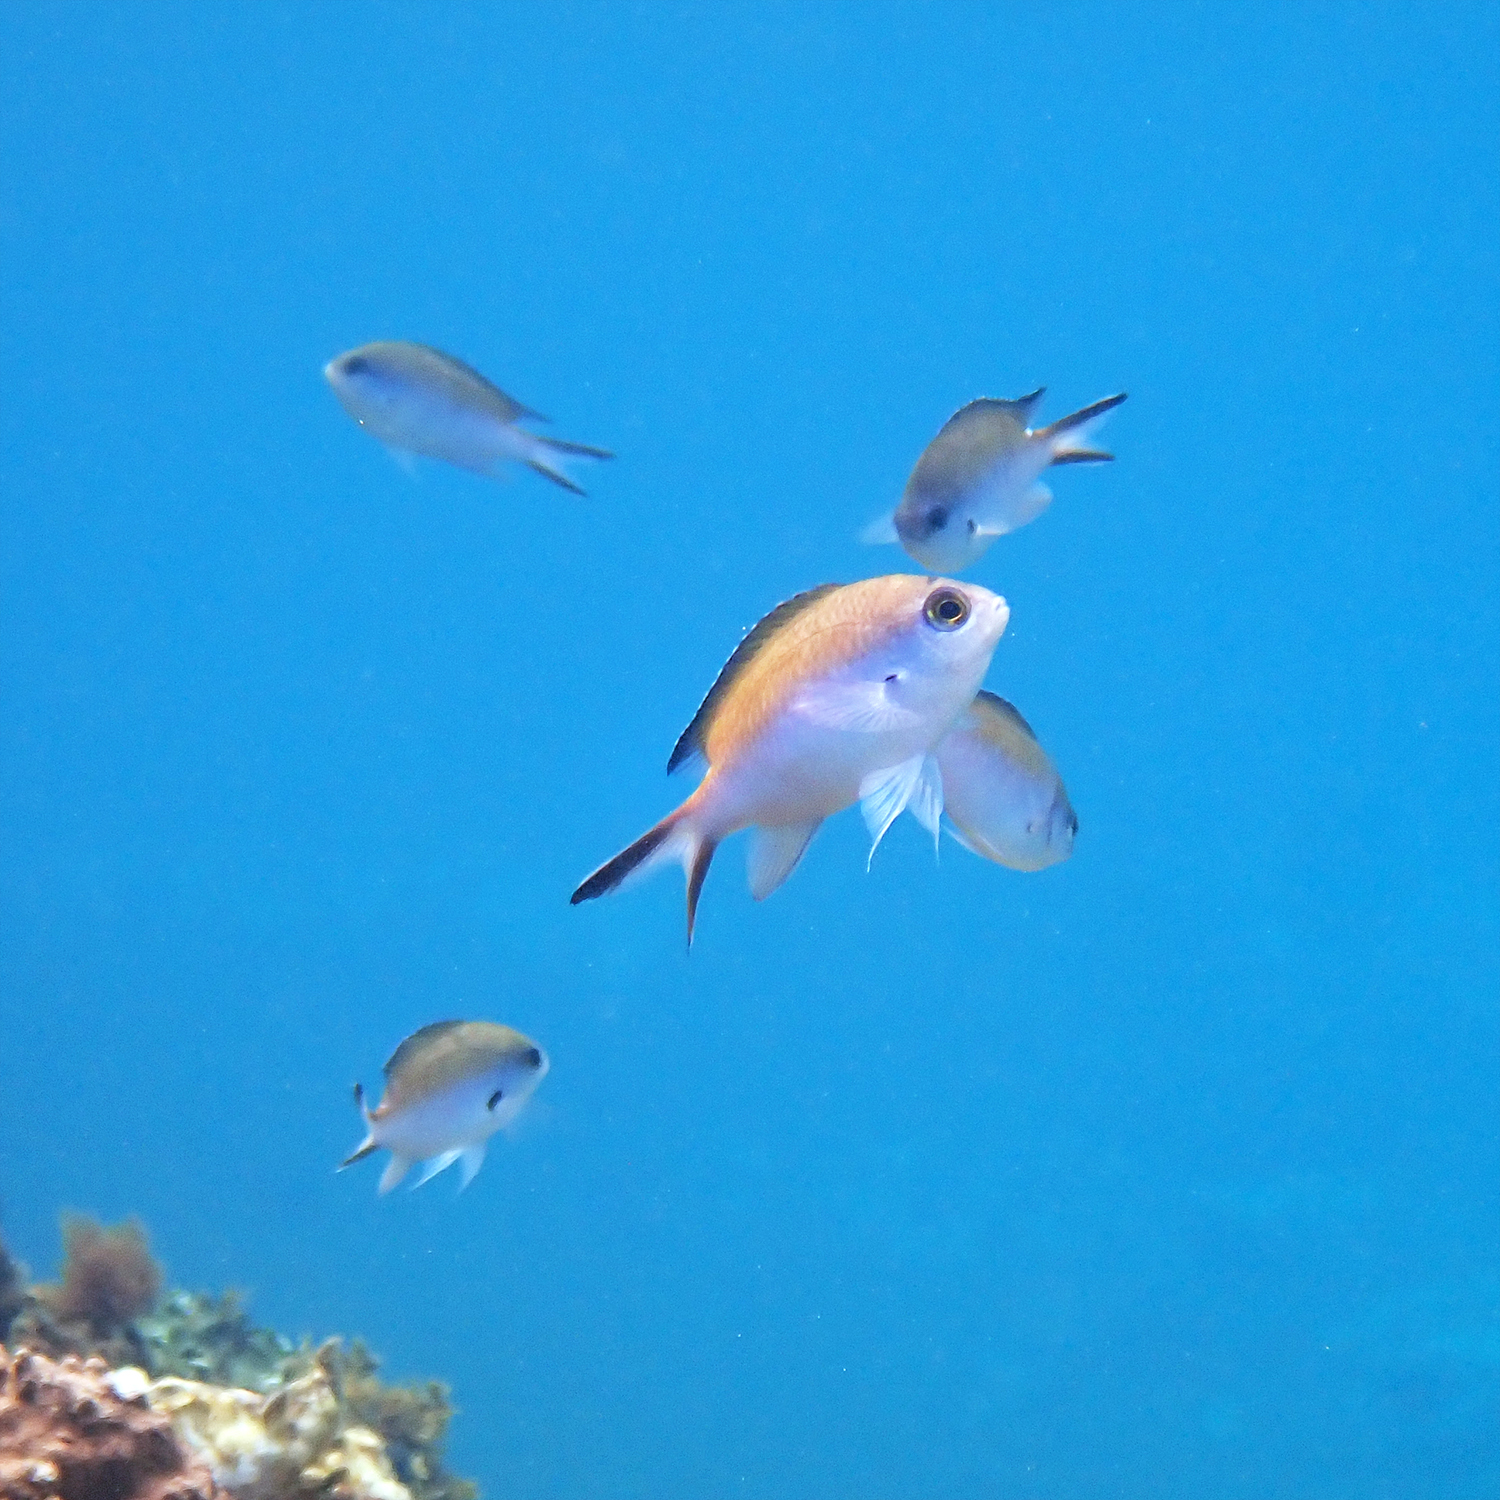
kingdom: Animalia
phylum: Chordata
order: Perciformes
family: Pomacentridae
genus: Chromis
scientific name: Chromis norfolkensis
